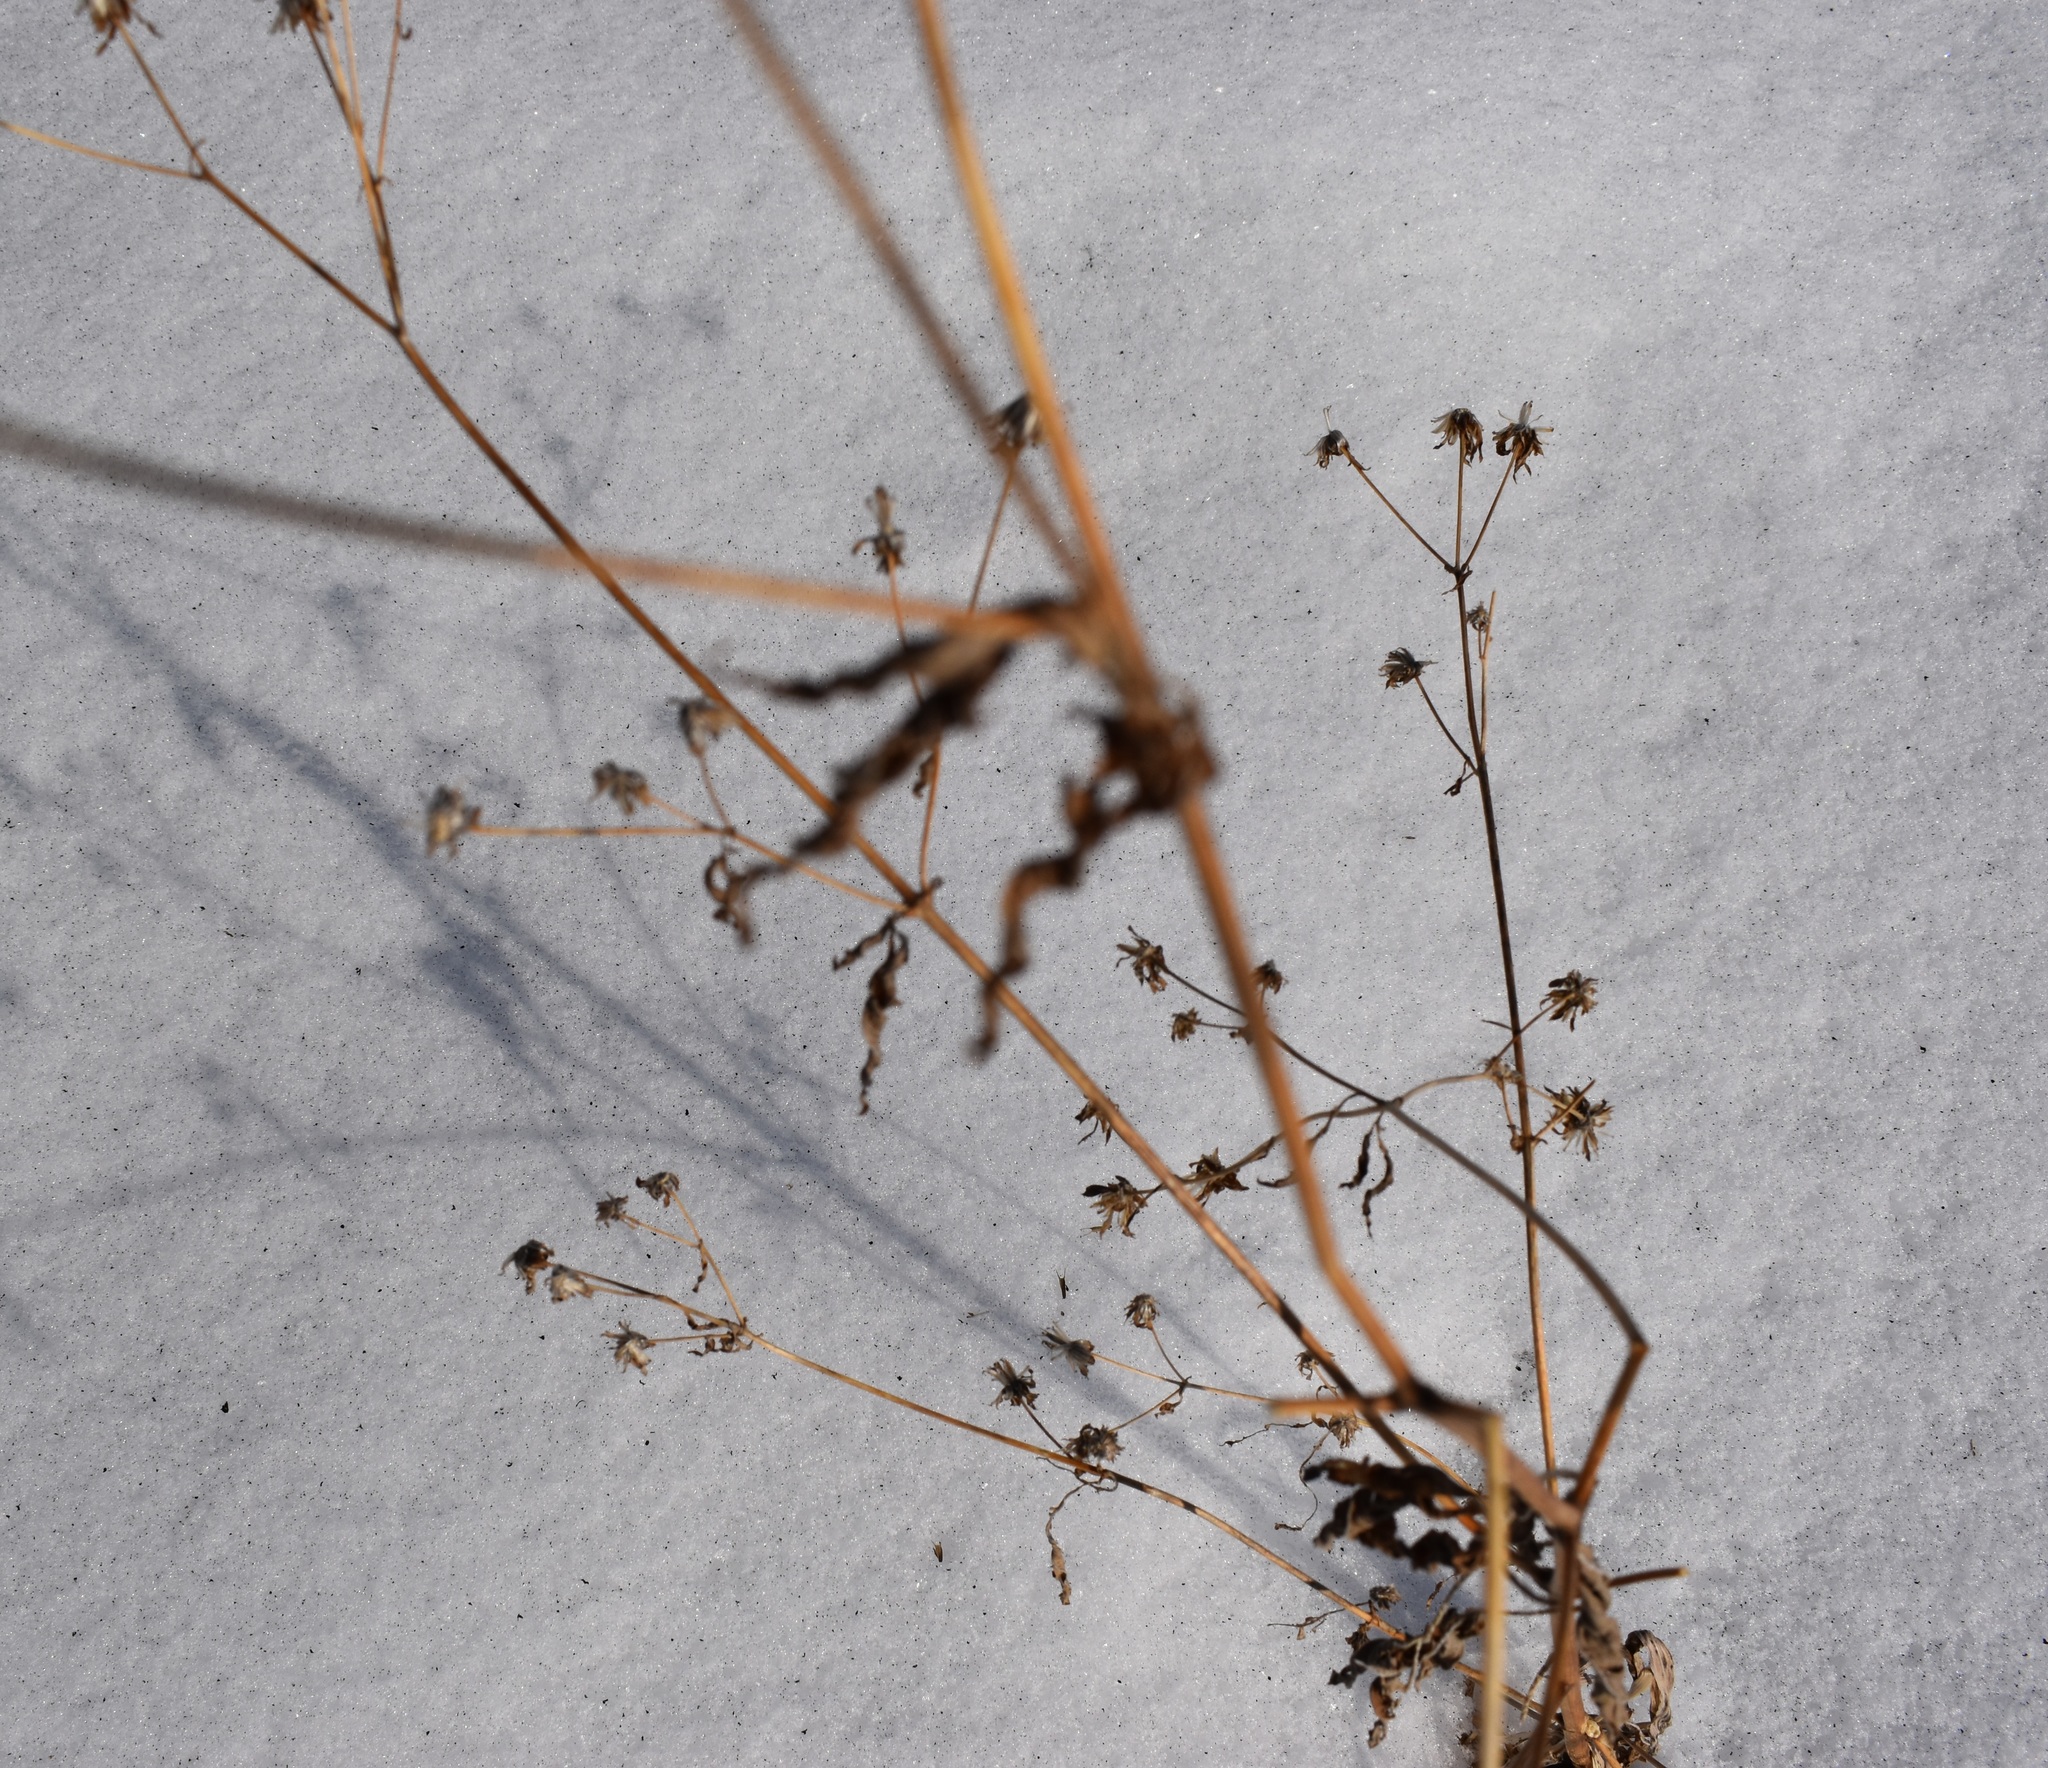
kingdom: Plantae
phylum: Tracheophyta
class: Magnoliopsida
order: Asterales
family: Asteraceae
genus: Bidens
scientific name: Bidens frondosa
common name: Beggarticks
